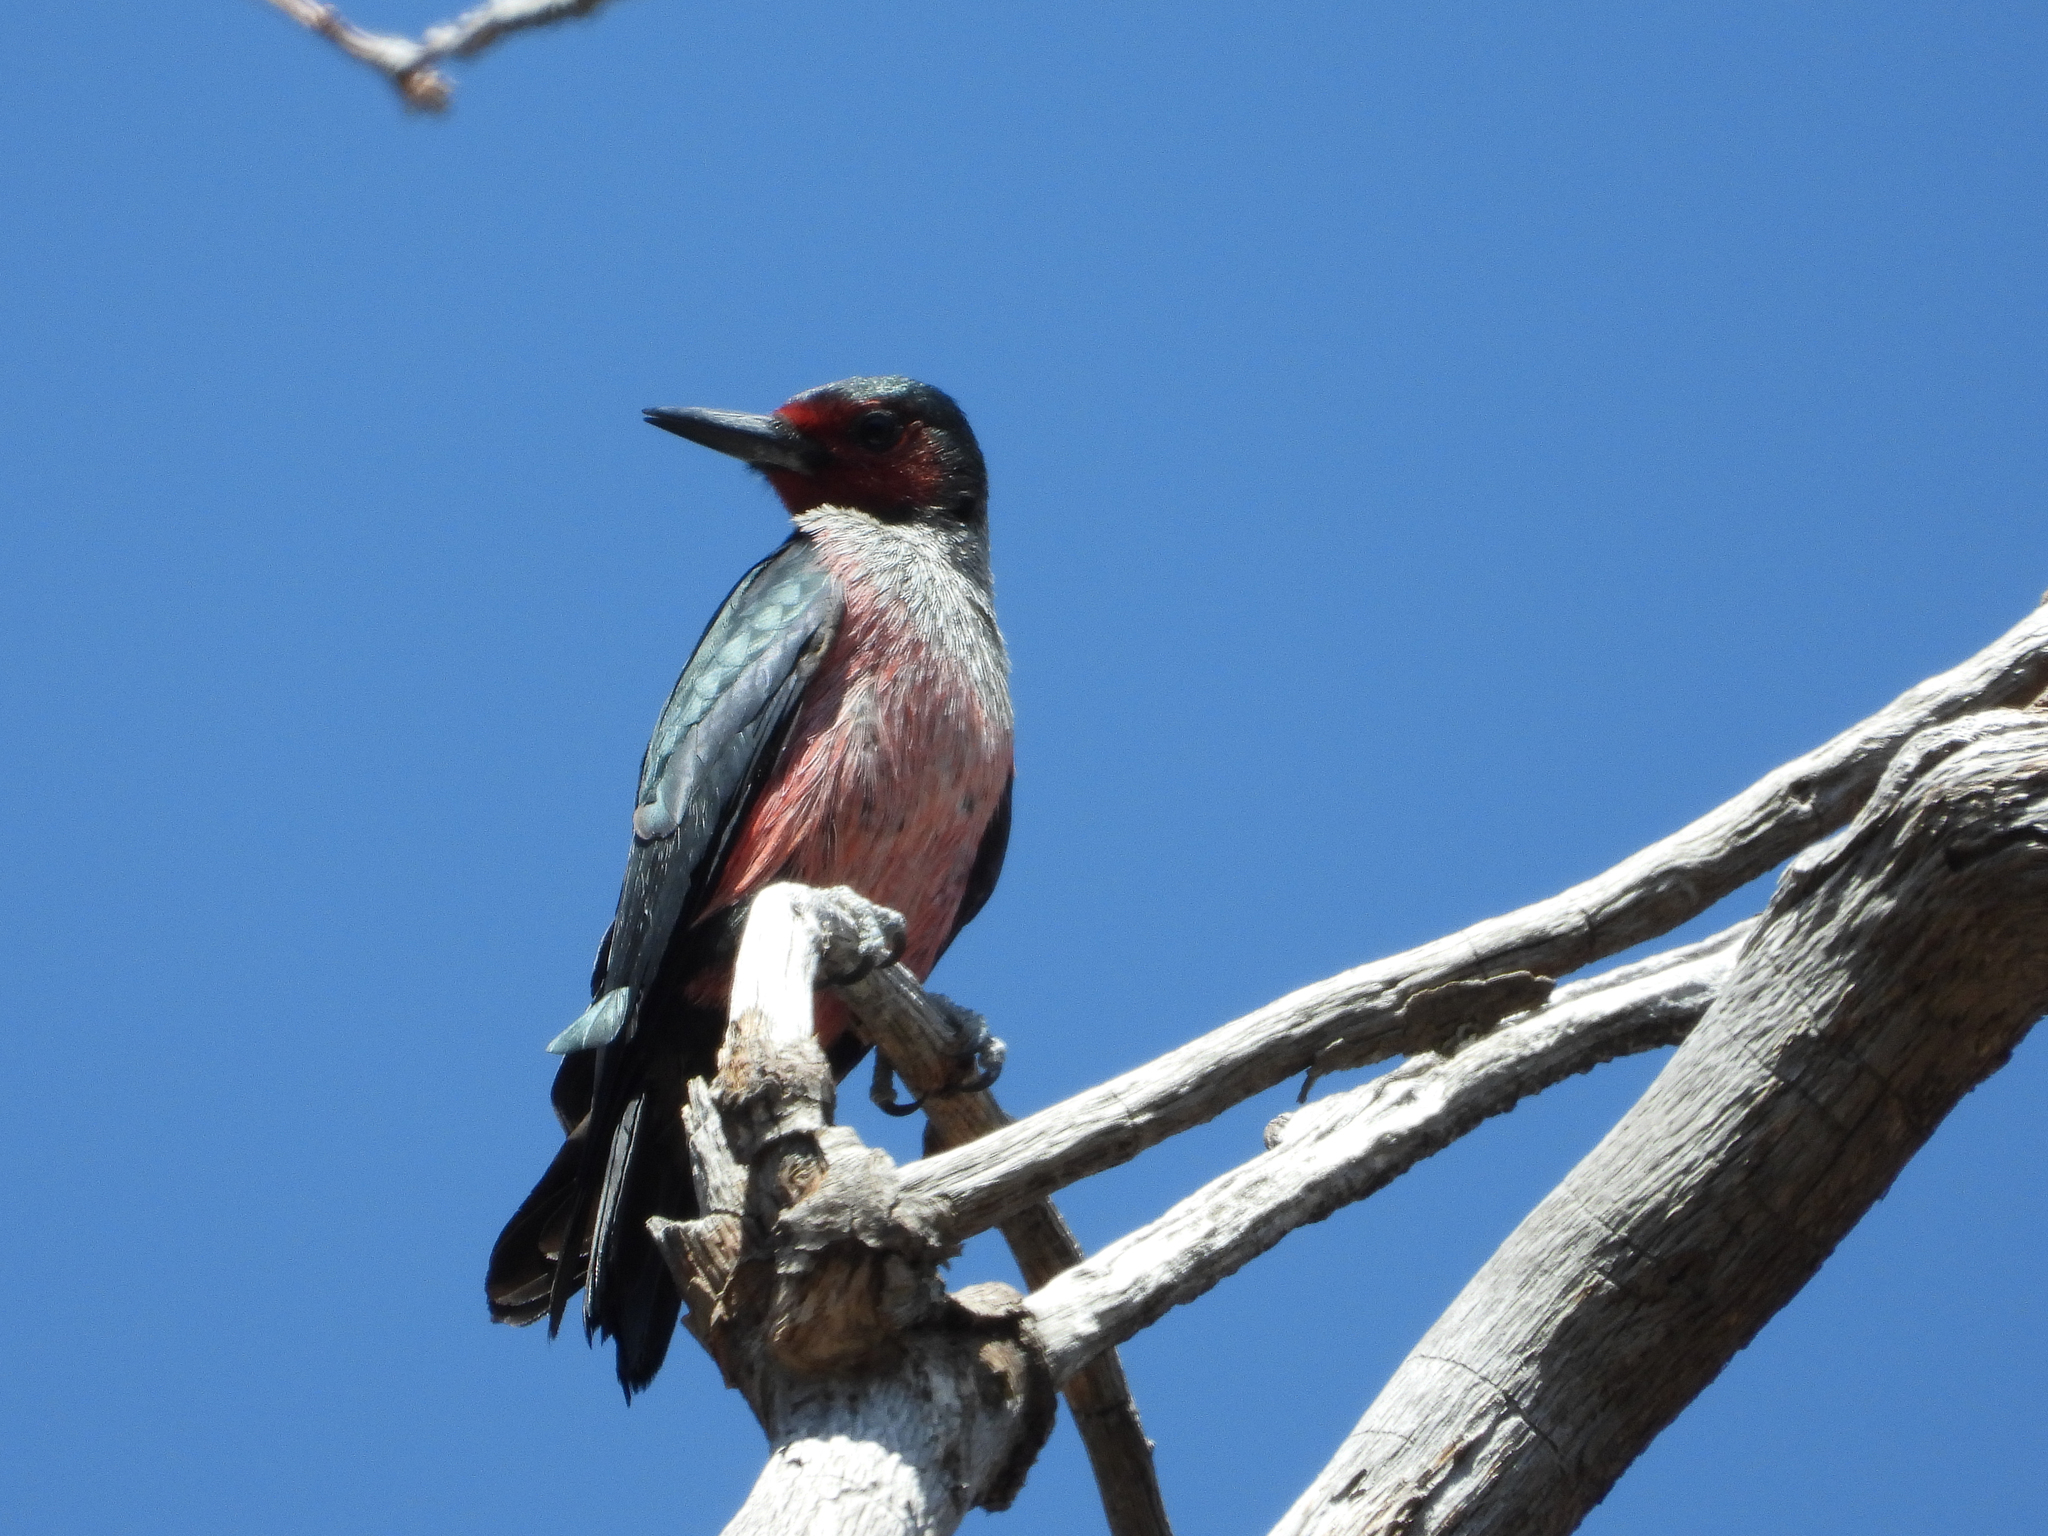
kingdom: Animalia
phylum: Chordata
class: Aves
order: Piciformes
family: Picidae
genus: Melanerpes
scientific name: Melanerpes lewis
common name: Lewis's woodpecker
